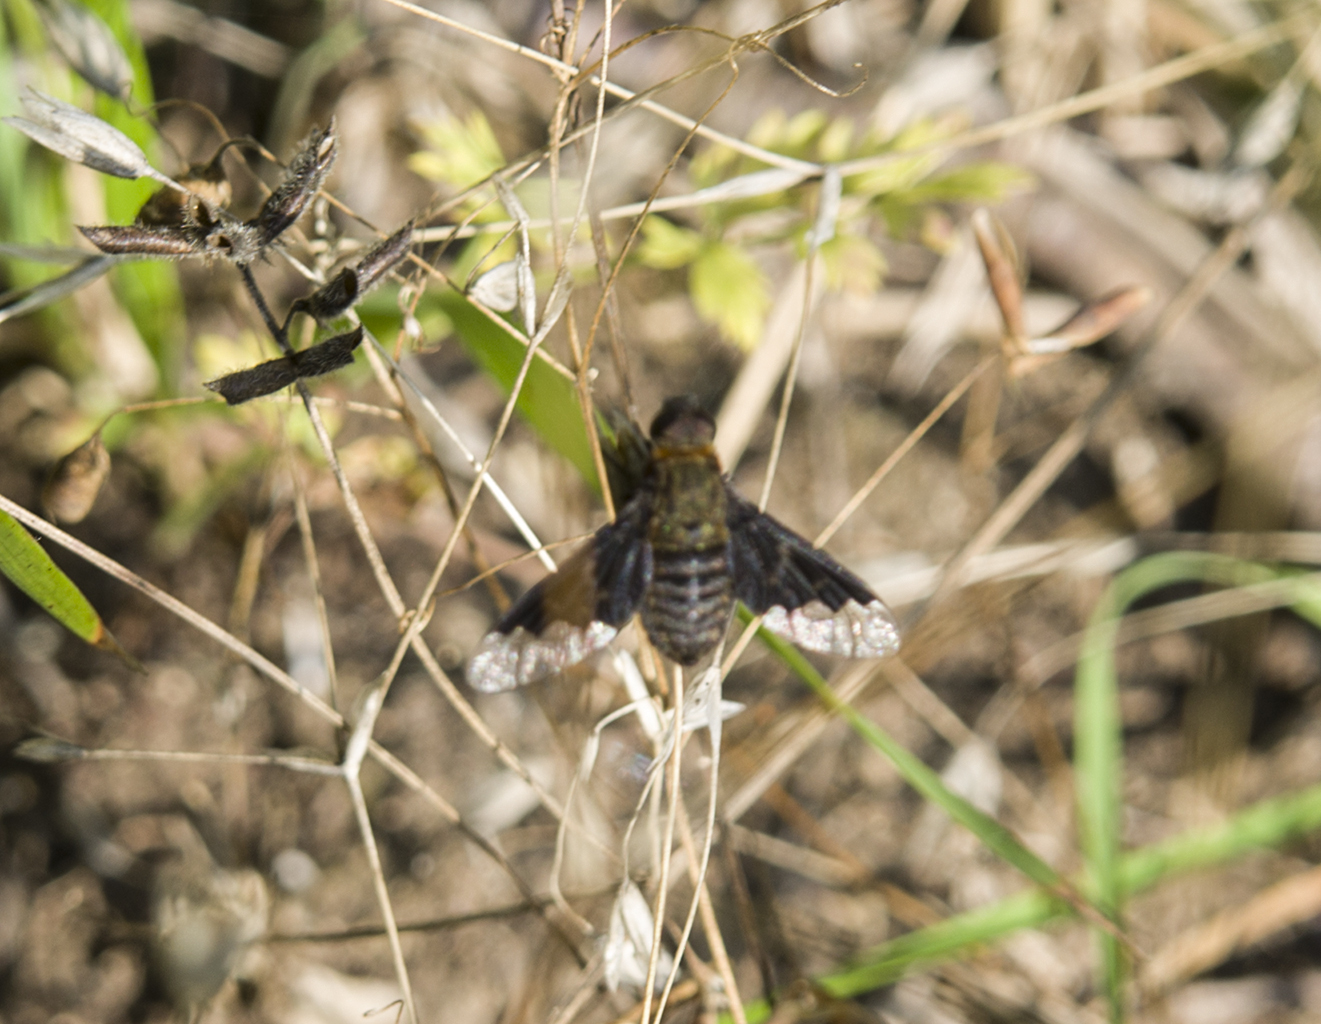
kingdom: Animalia
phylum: Arthropoda
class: Insecta
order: Diptera
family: Bombyliidae
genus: Hemipenthes
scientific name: Hemipenthes morio
